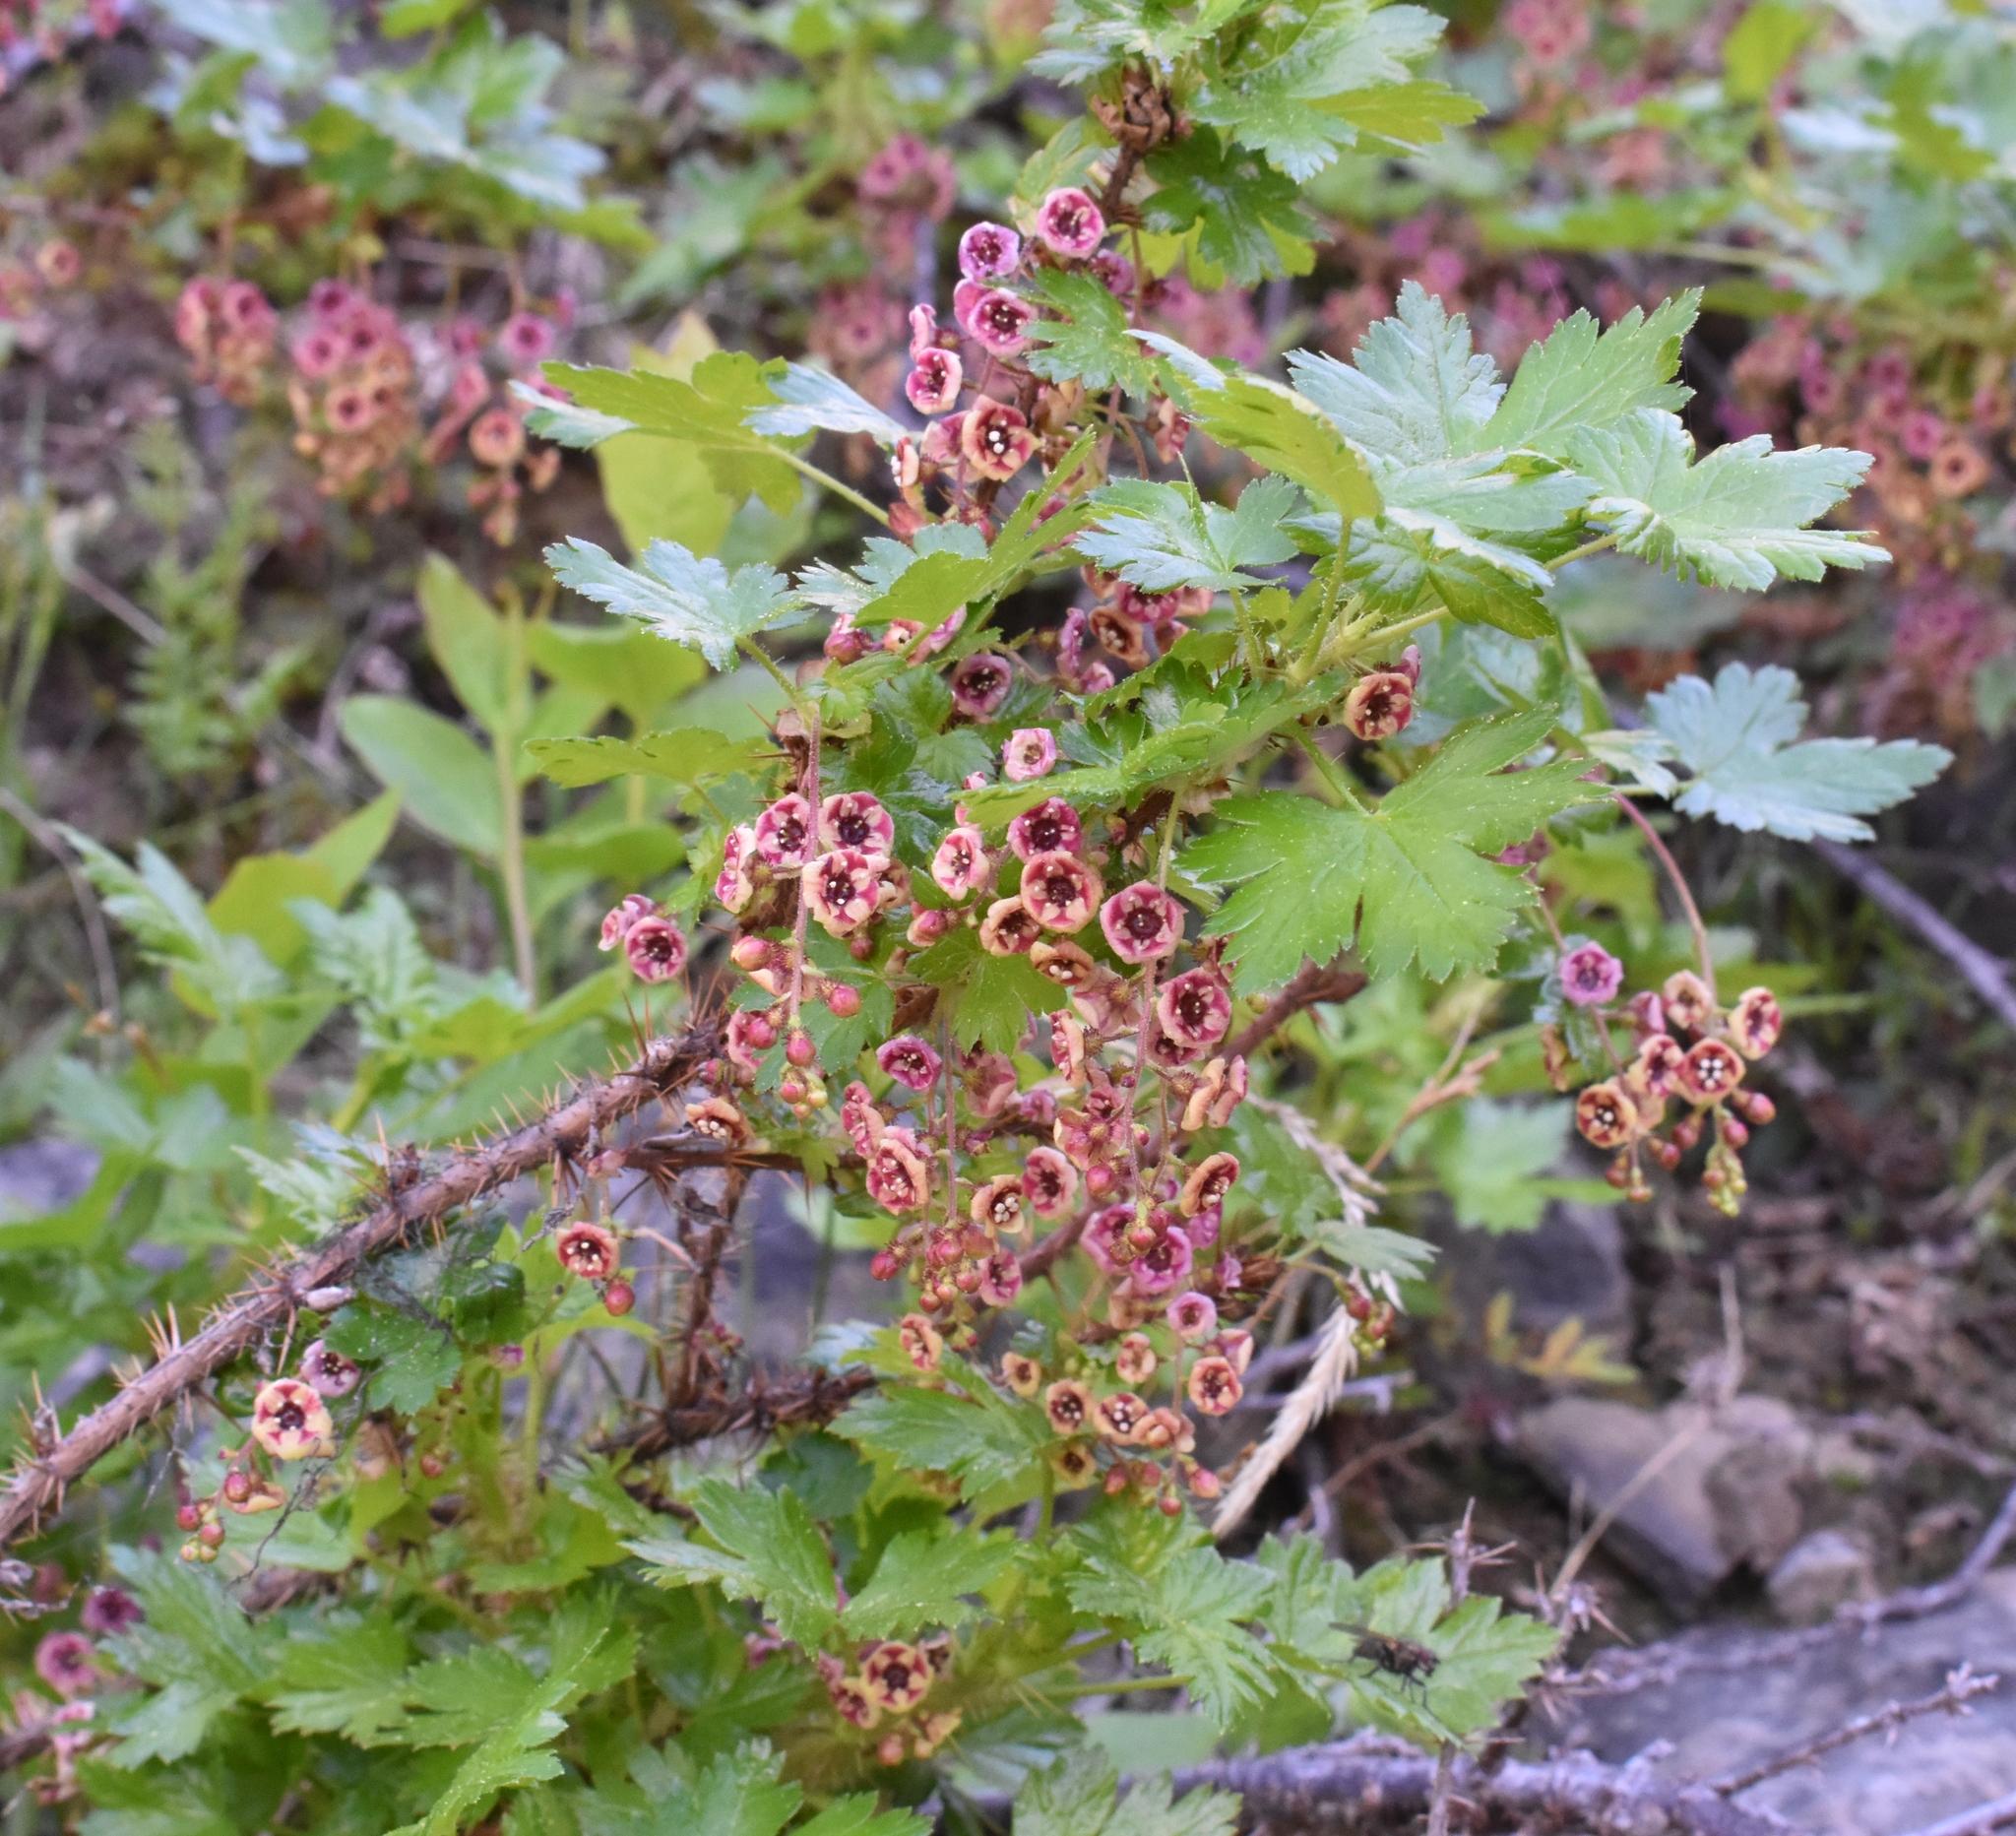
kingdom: Plantae
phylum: Tracheophyta
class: Magnoliopsida
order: Saxifragales
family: Grossulariaceae
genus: Ribes
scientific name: Ribes lacustre
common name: Black gooseberry
